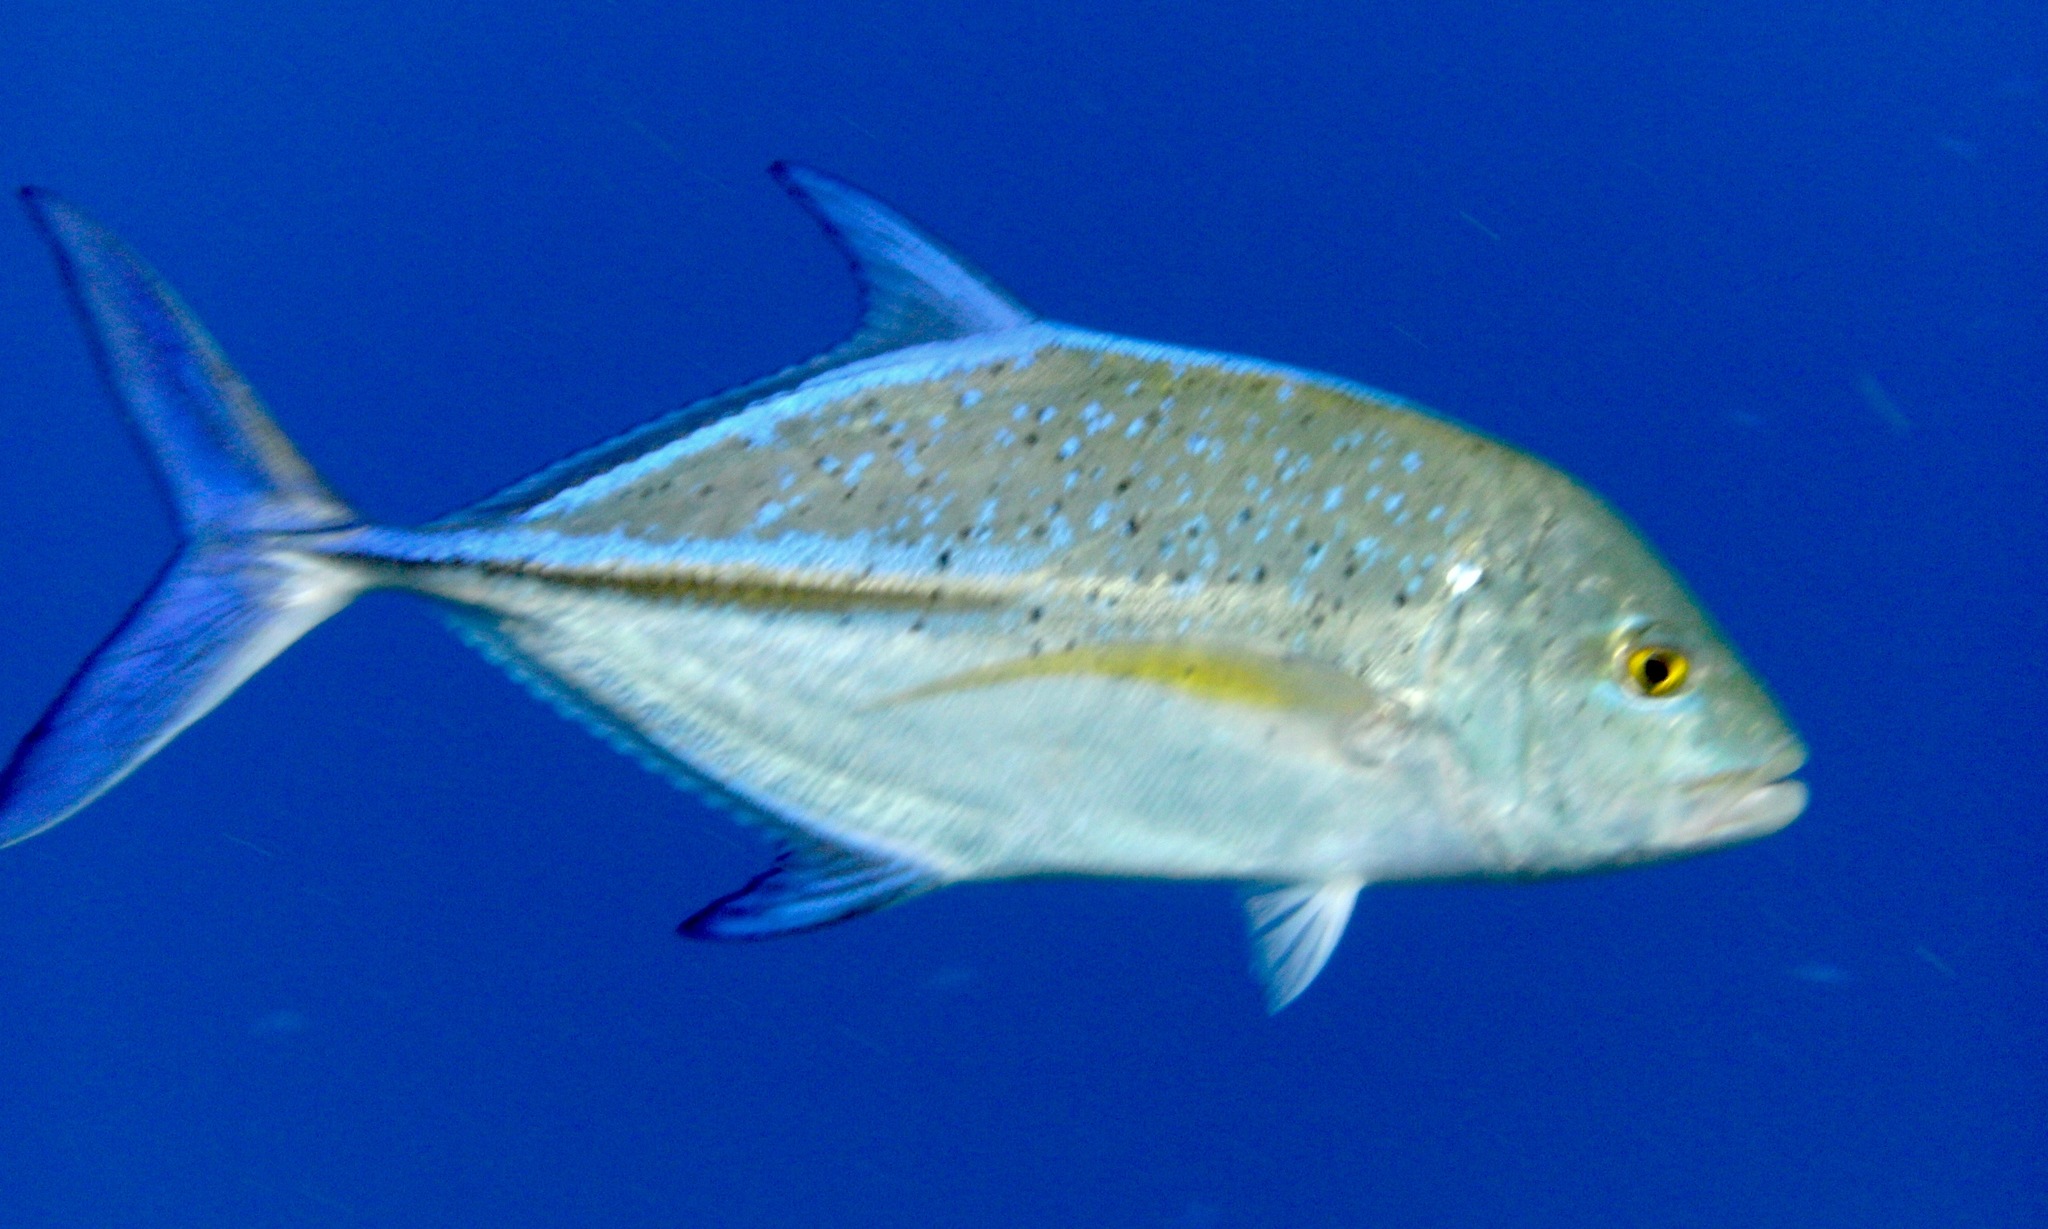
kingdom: Animalia
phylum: Chordata
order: Perciformes
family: Carangidae
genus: Caranx
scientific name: Caranx melampygus
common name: Bluefin trevally
